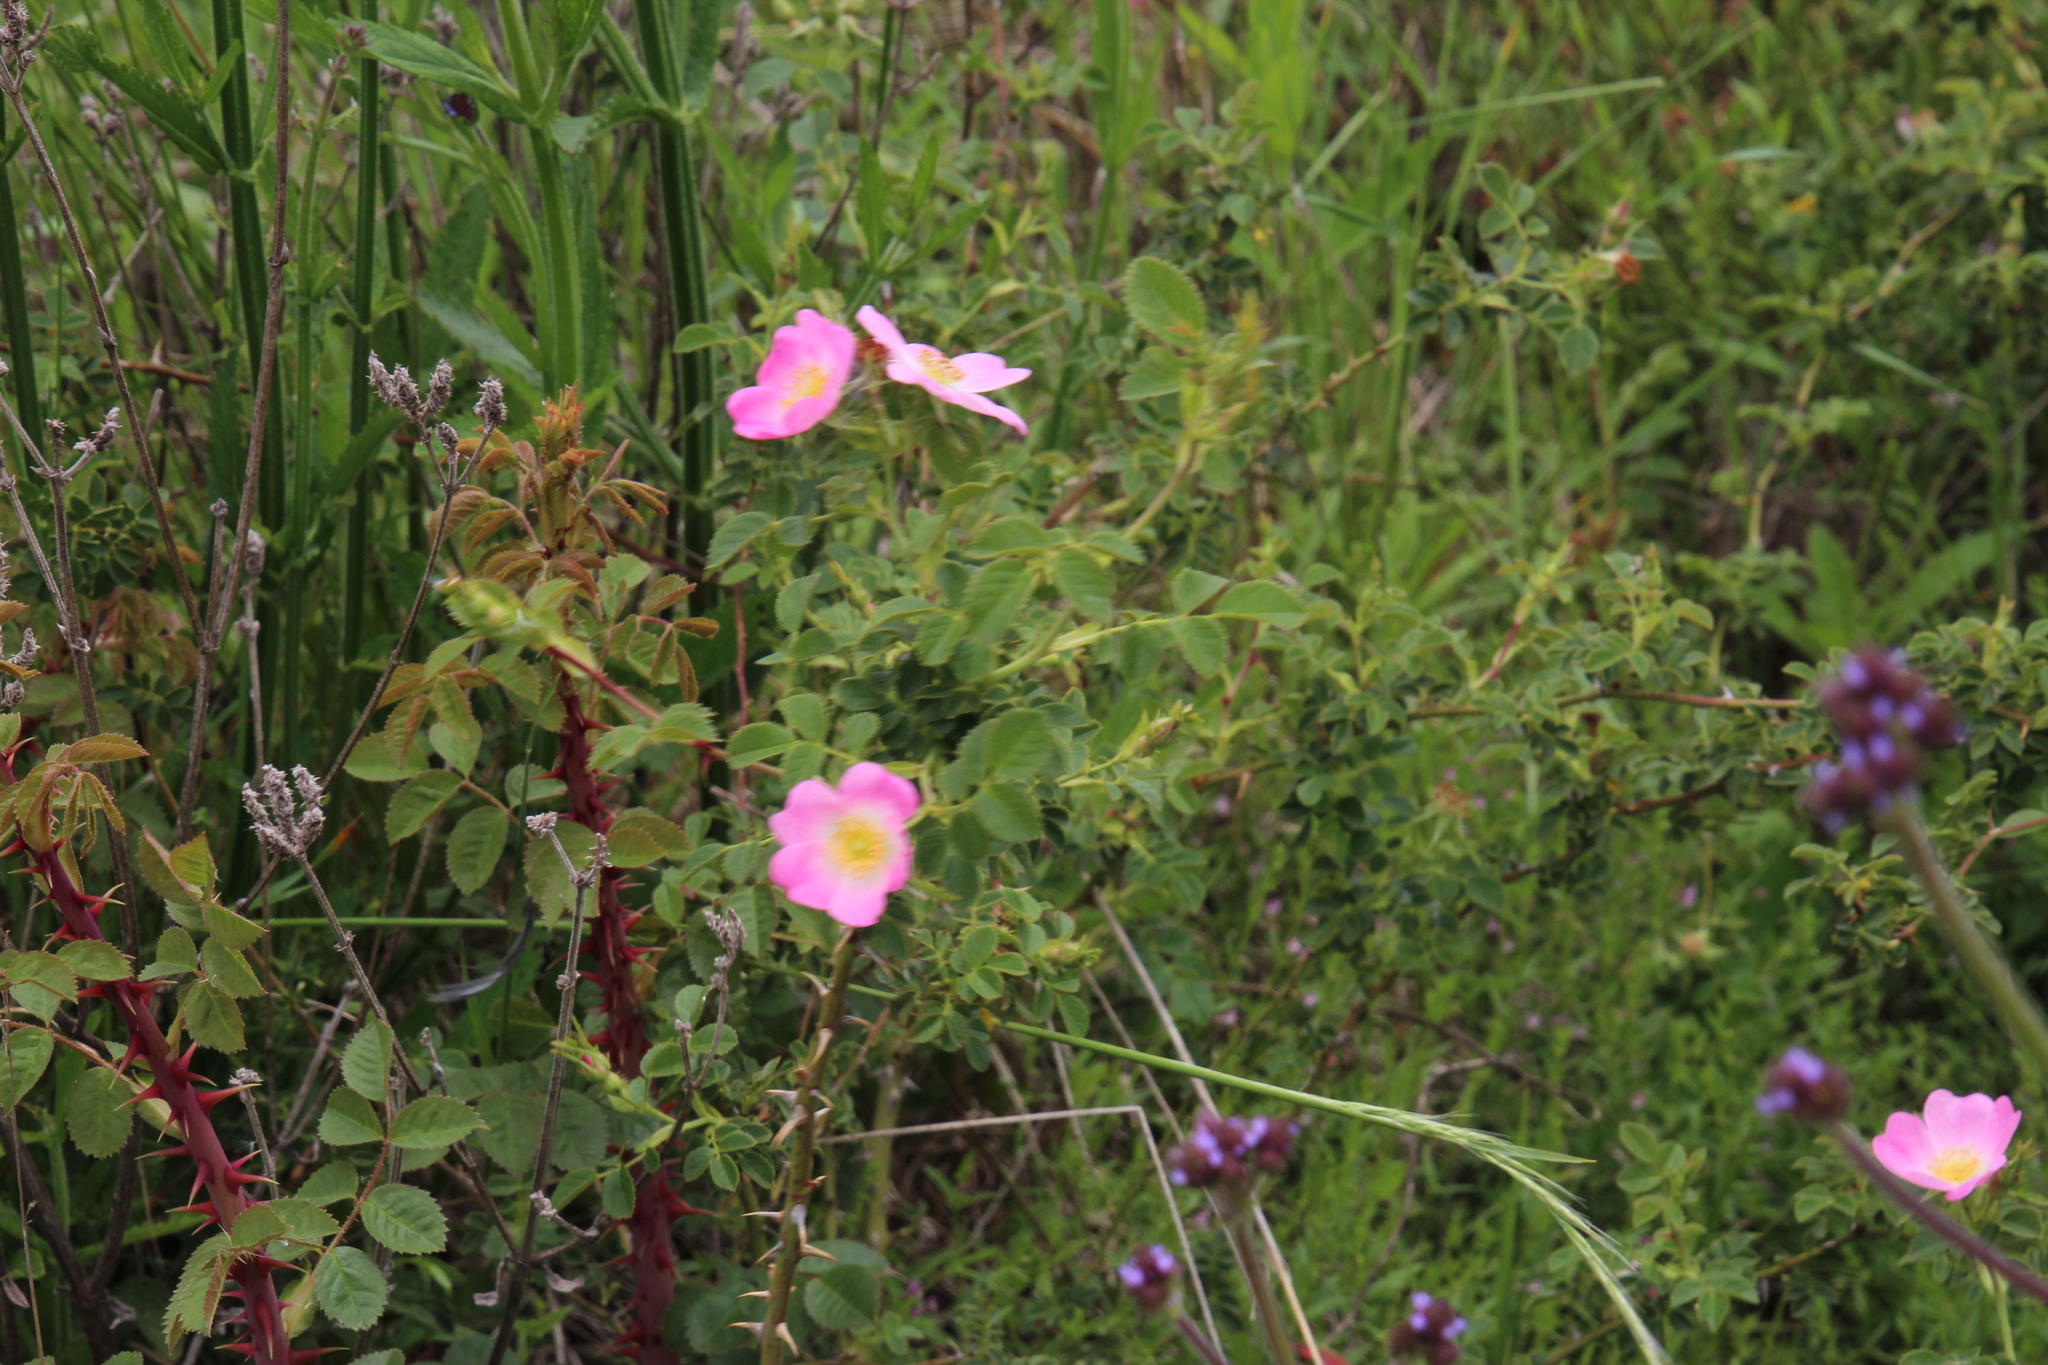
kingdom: Plantae
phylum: Tracheophyta
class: Magnoliopsida
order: Rosales
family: Rosaceae
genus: Rosa
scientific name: Rosa rubiginosa
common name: Sweet-briar
